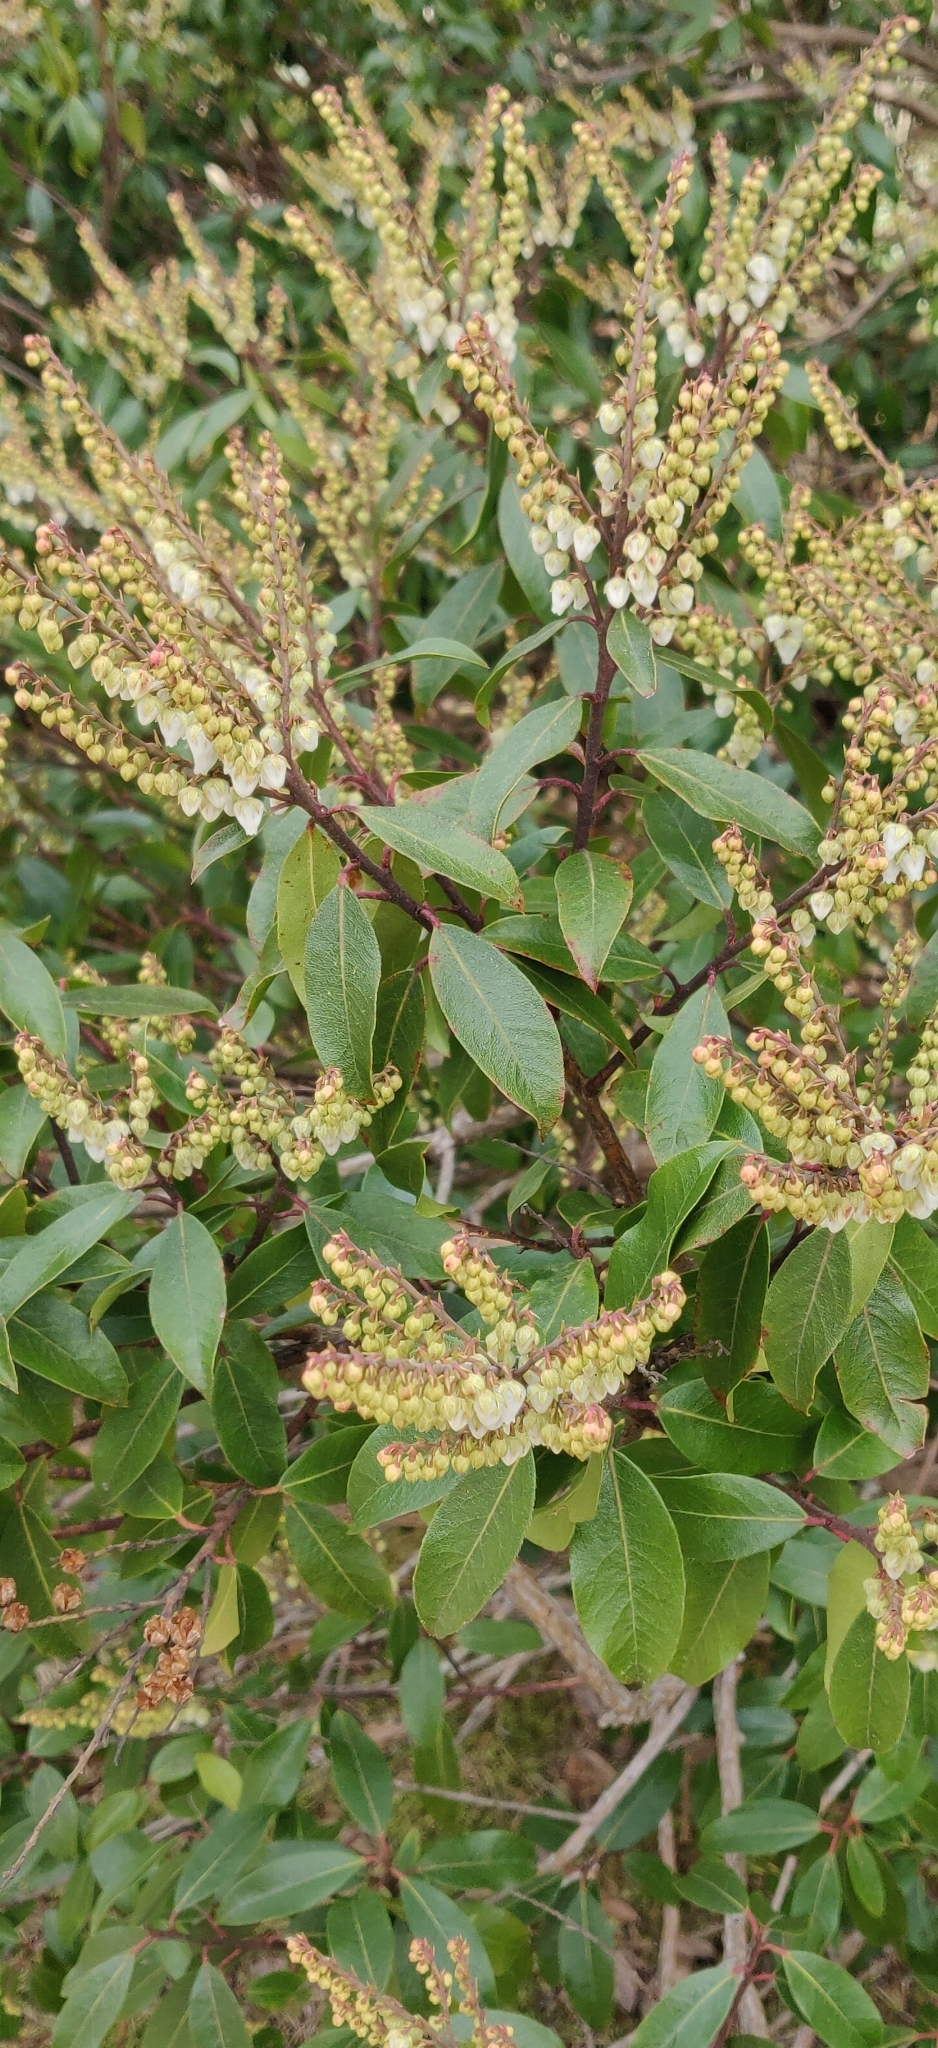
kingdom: Plantae
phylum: Tracheophyta
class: Magnoliopsida
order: Ericales
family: Ericaceae
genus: Pieris
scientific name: Pieris floribunda
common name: Flutterbush
